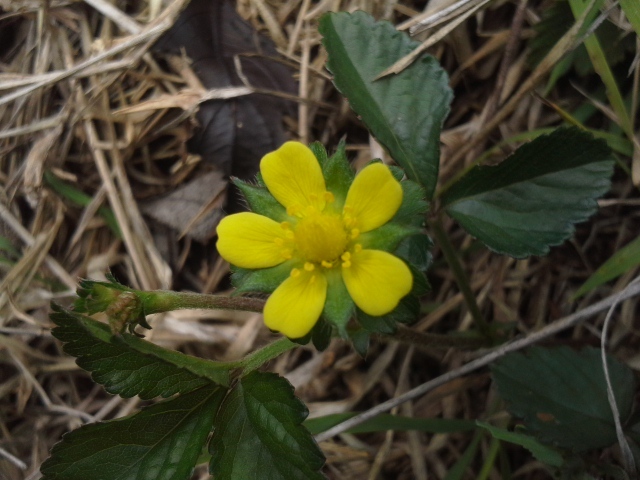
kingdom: Plantae
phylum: Tracheophyta
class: Magnoliopsida
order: Rosales
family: Rosaceae
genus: Potentilla
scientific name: Potentilla indica
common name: Yellow-flowered strawberry
